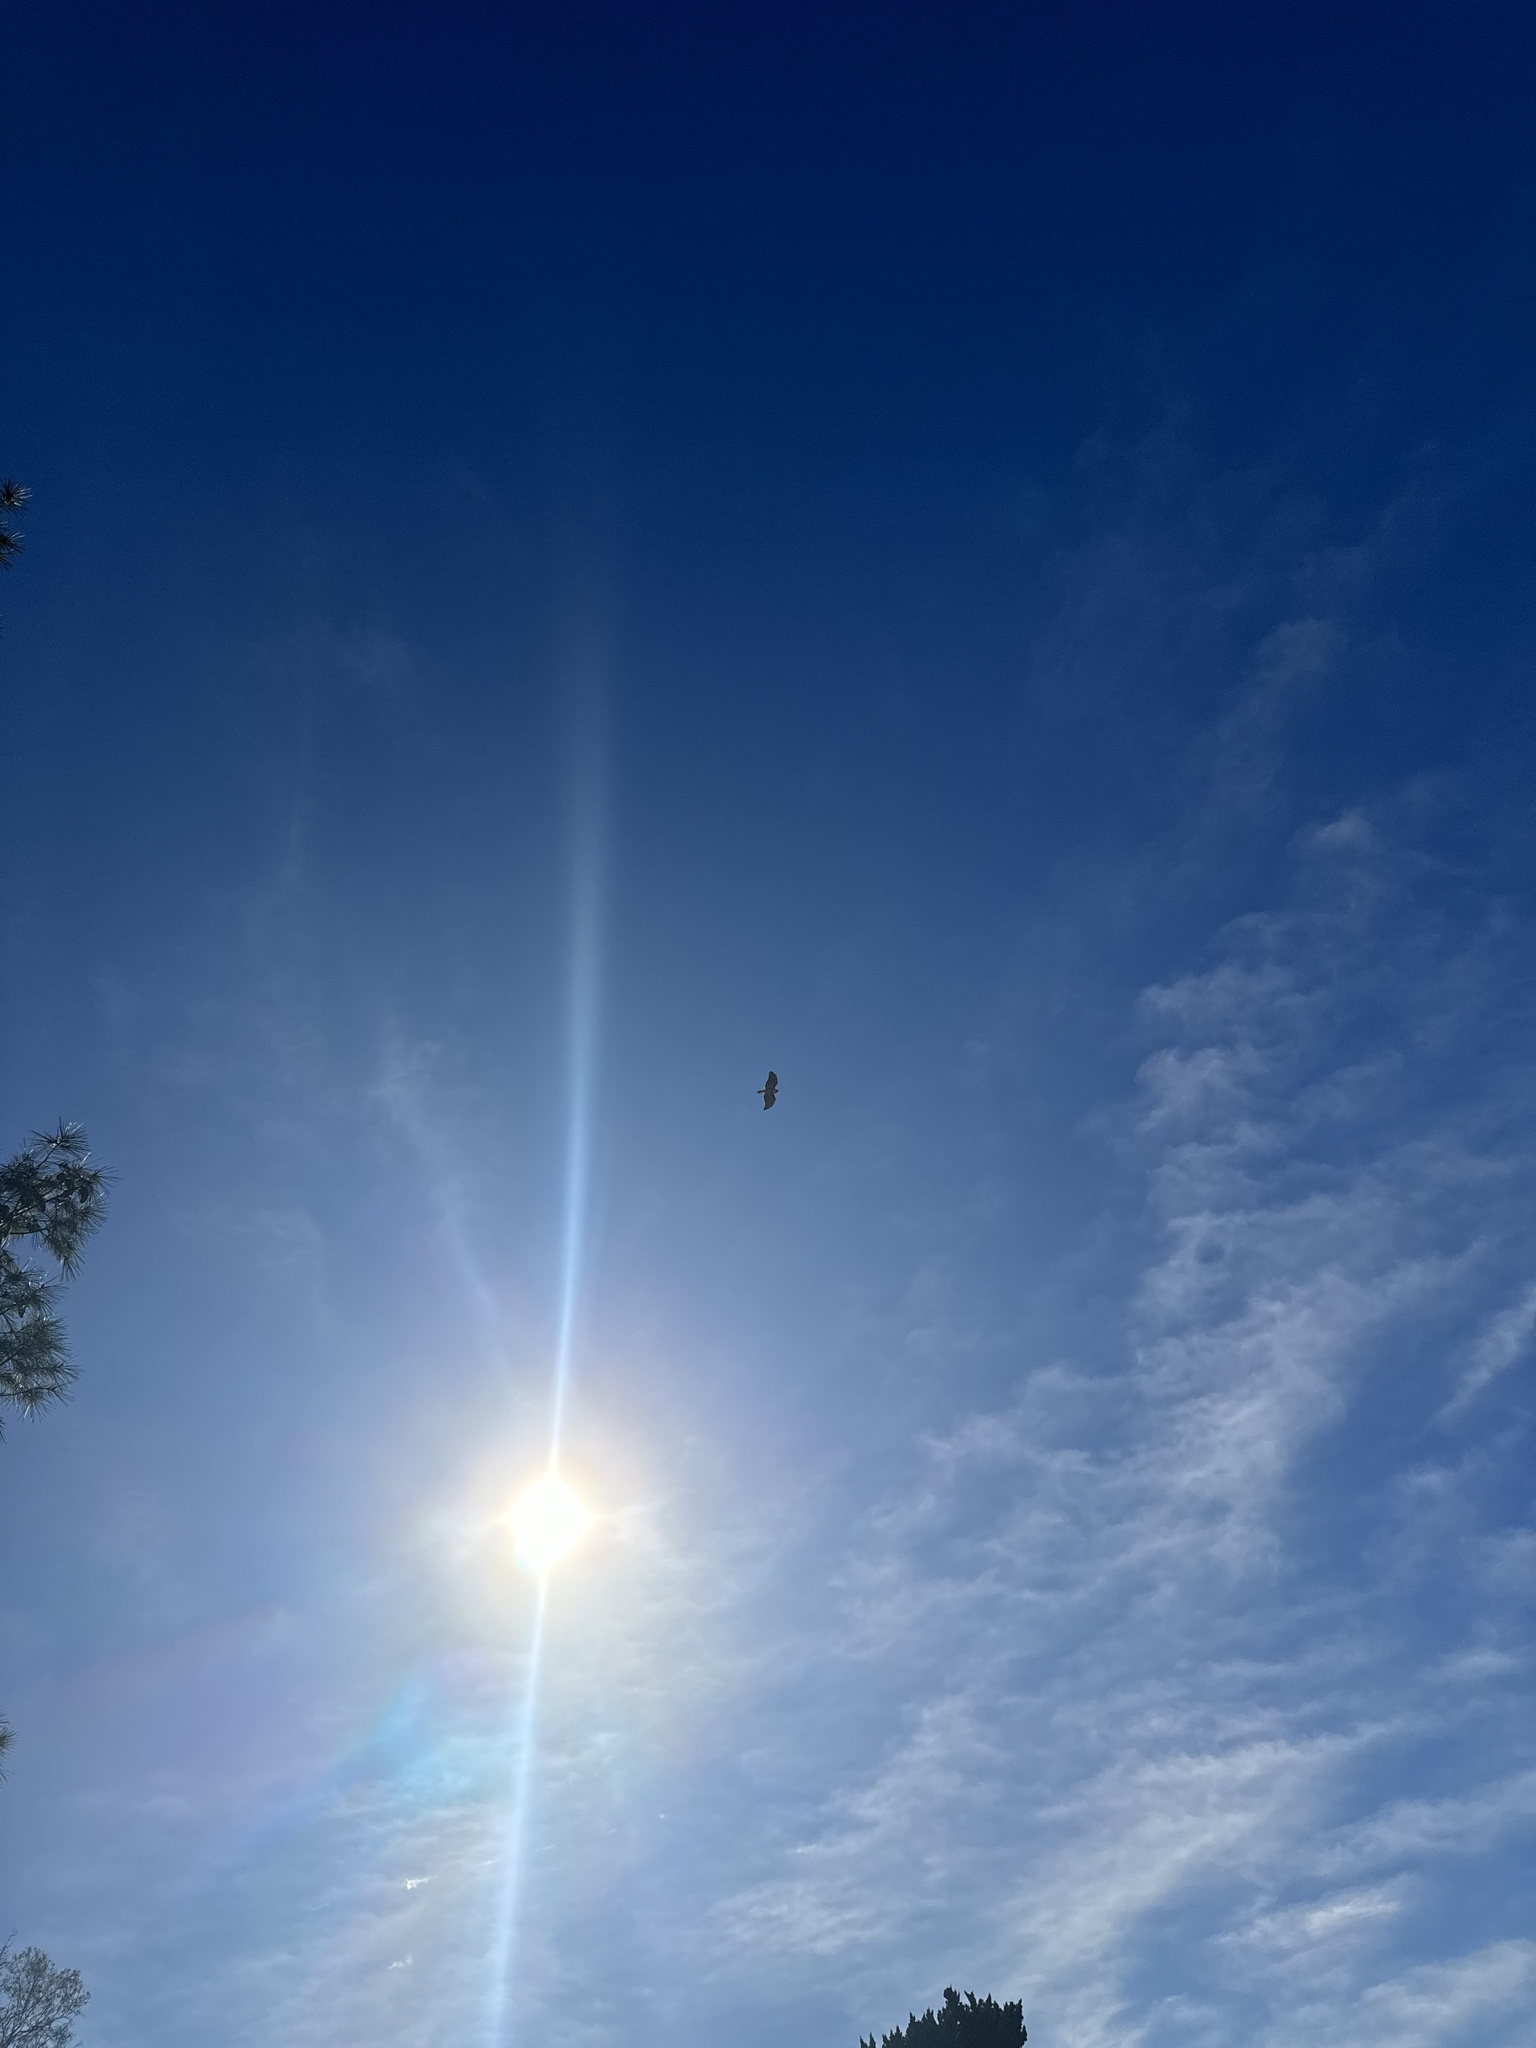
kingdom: Animalia
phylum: Chordata
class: Aves
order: Accipitriformes
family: Accipitridae
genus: Buteo
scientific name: Buteo jamaicensis
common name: Red-tailed hawk
